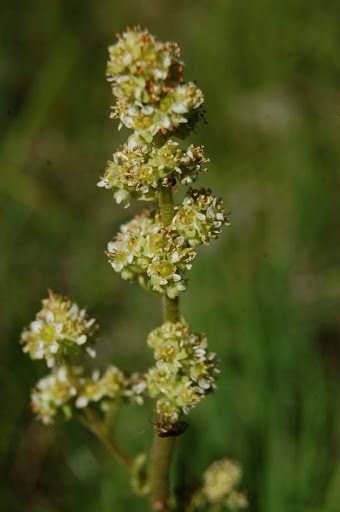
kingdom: Plantae
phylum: Tracheophyta
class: Magnoliopsida
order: Saxifragales
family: Saxifragaceae
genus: Micranthes
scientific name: Micranthes oregana
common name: Bog saxifrage
